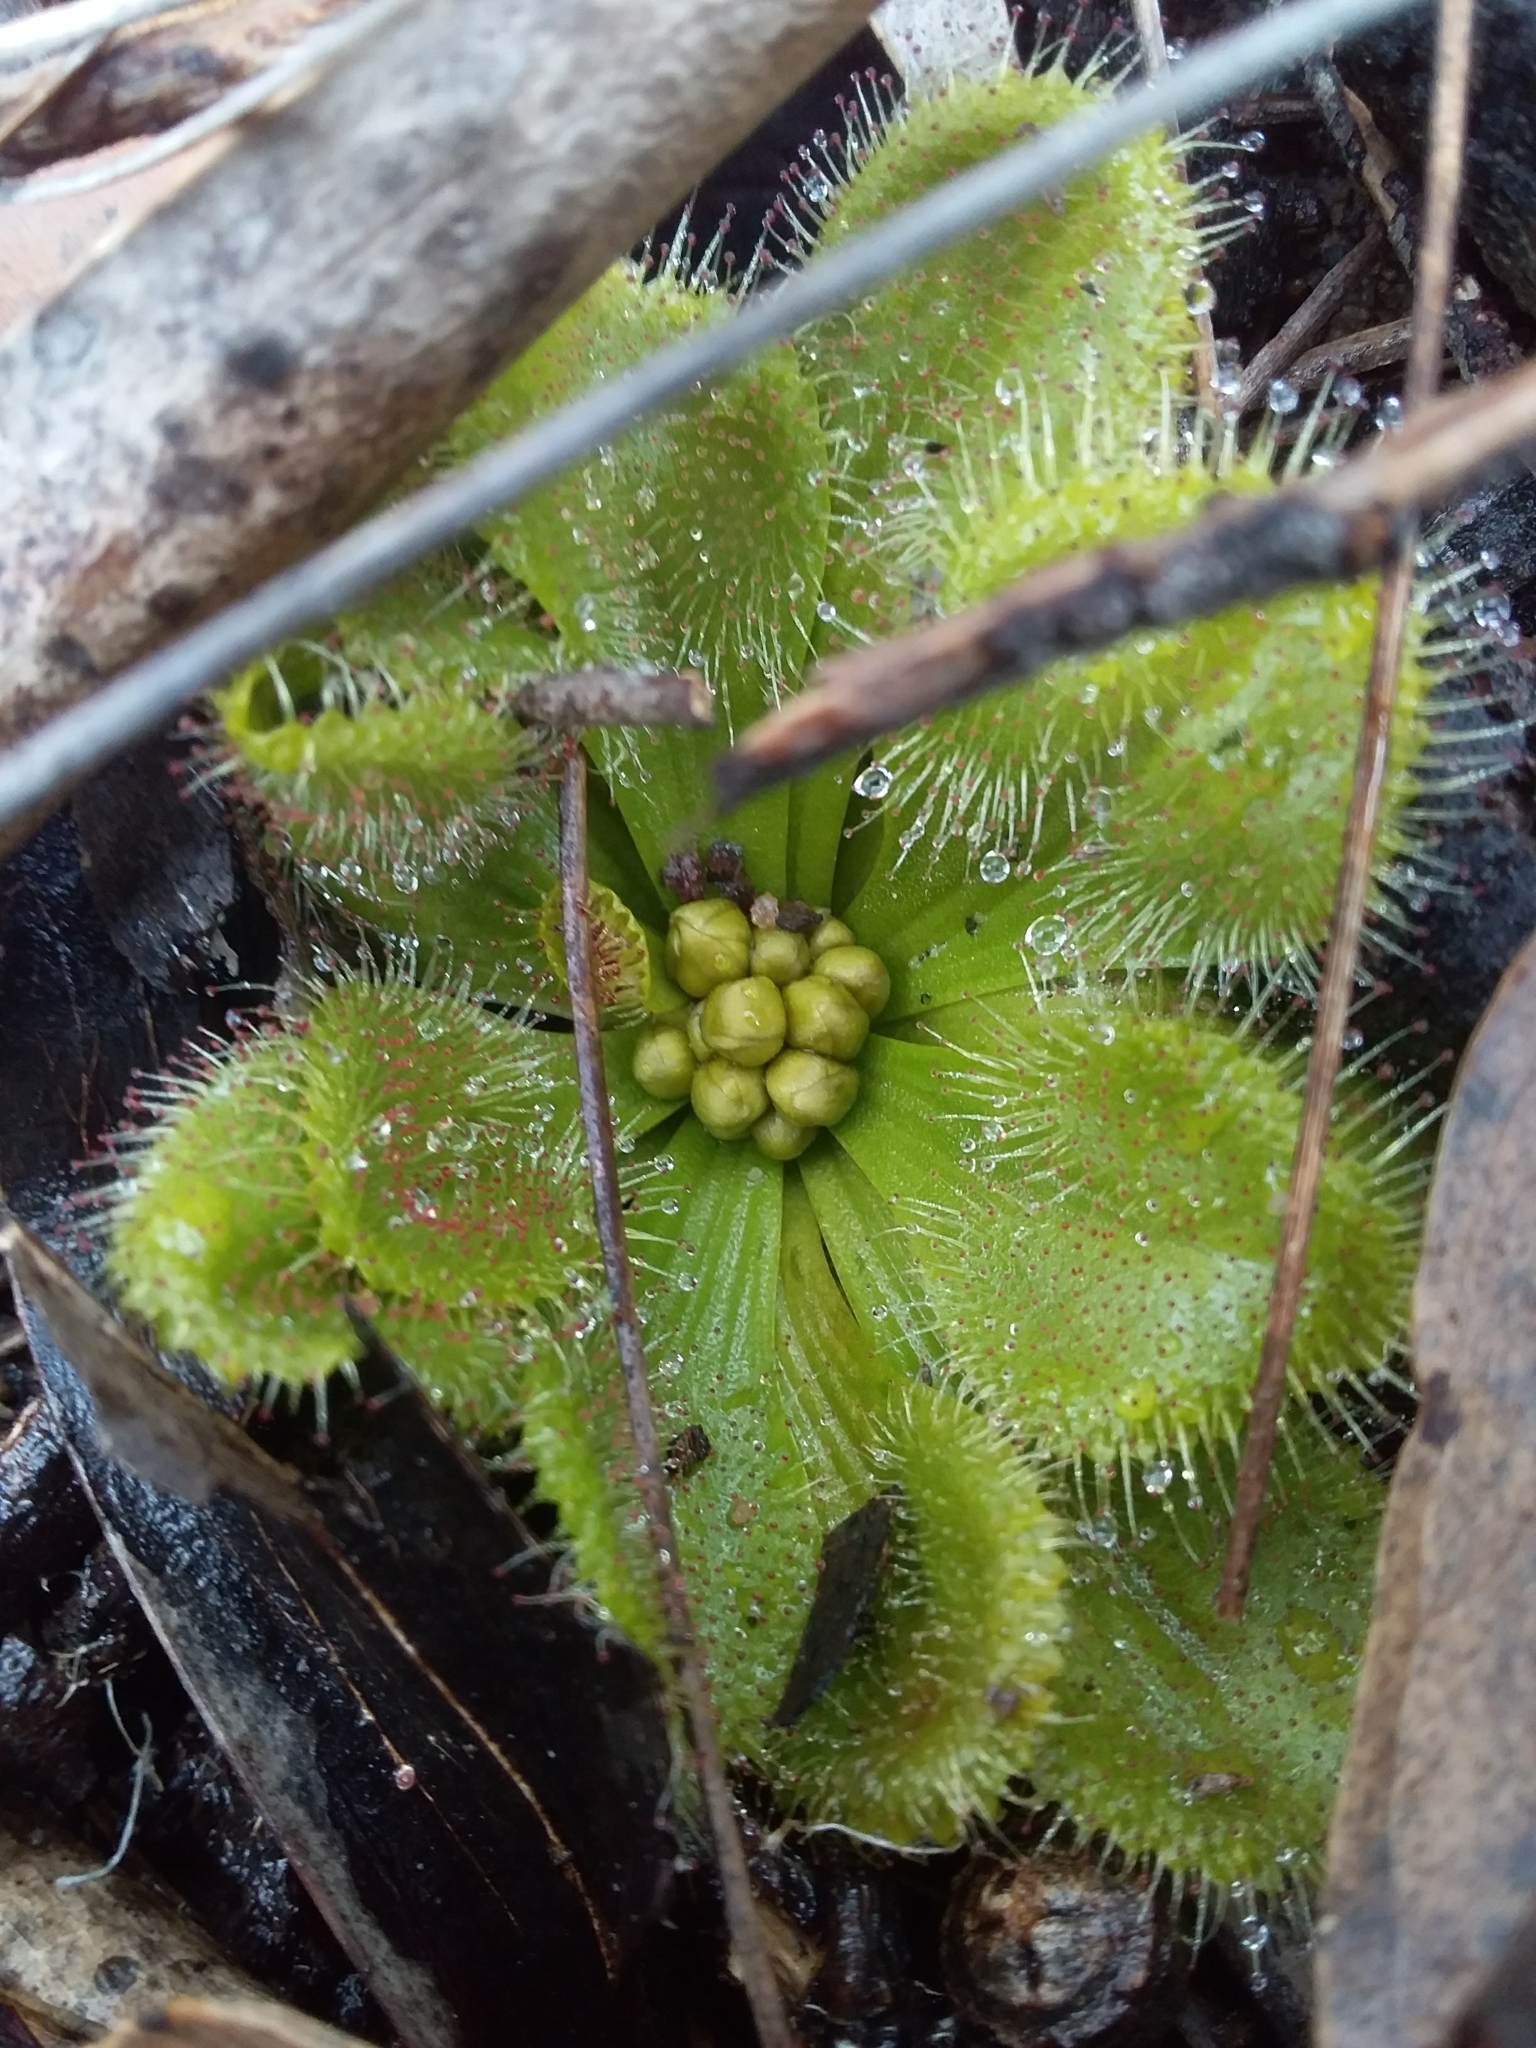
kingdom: Plantae
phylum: Tracheophyta
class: Magnoliopsida
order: Caryophyllales
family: Droseraceae
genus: Drosera
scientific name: Drosera whittakeri
